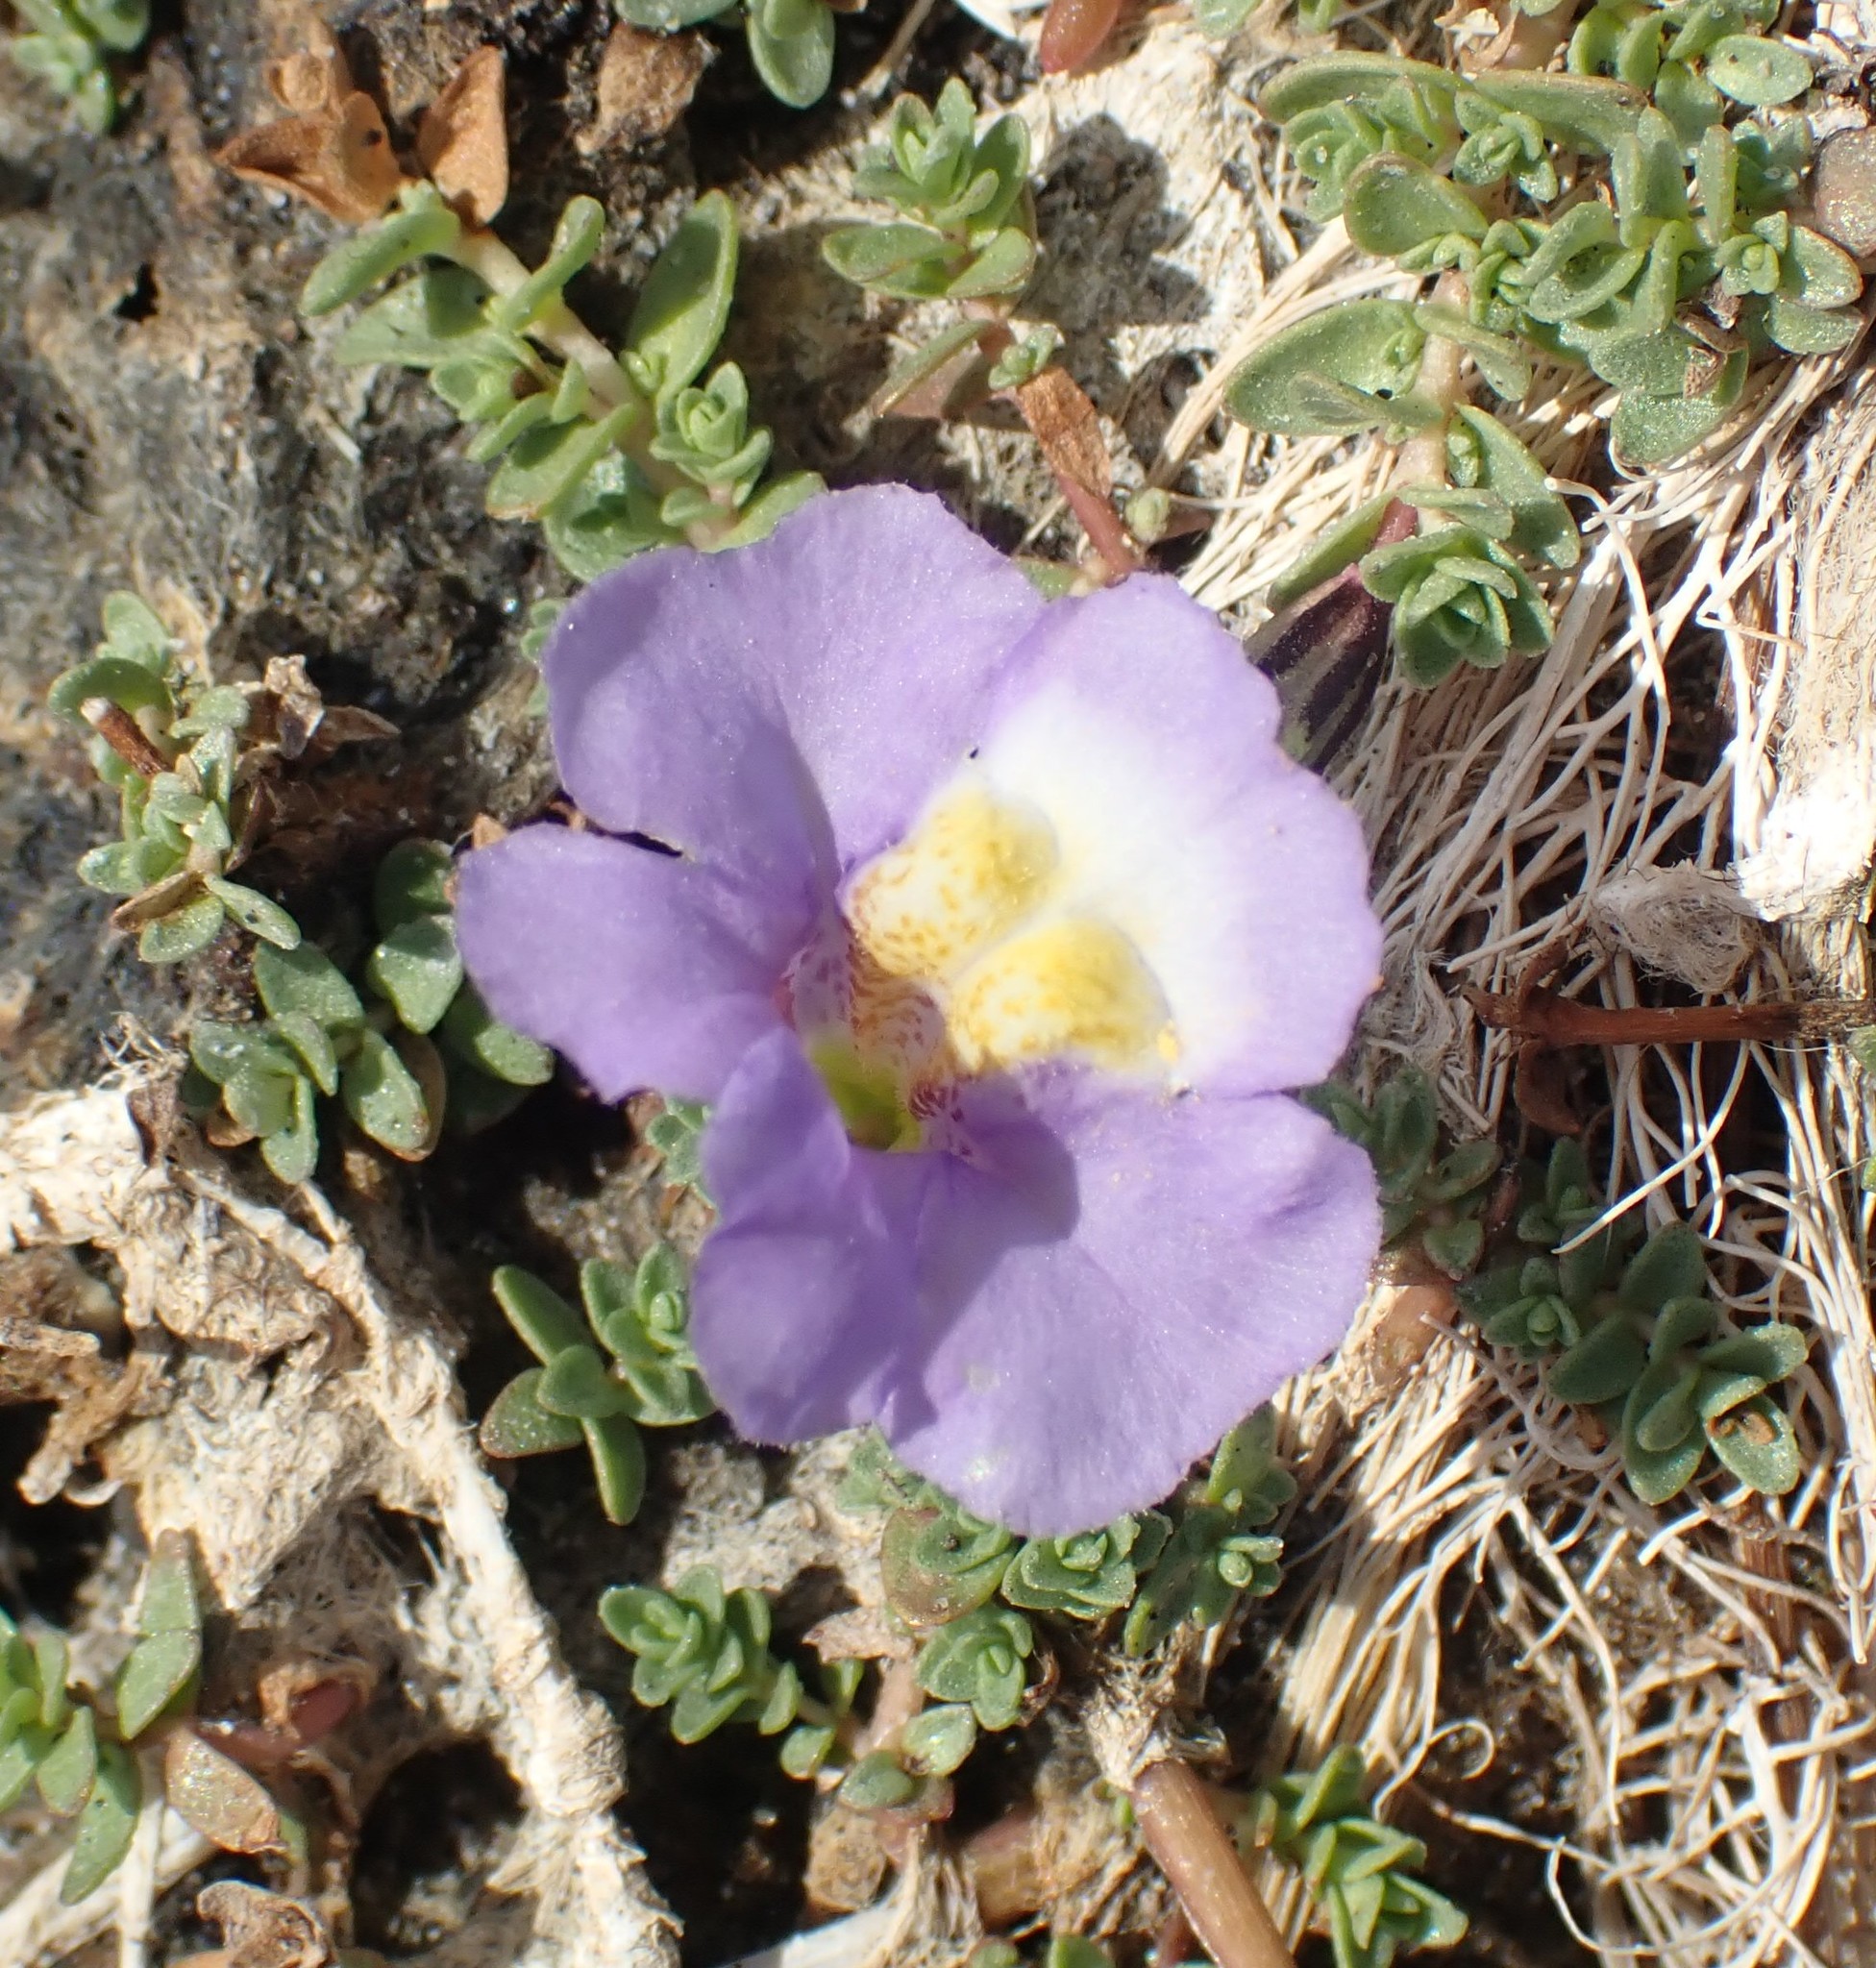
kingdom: Plantae
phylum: Tracheophyta
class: Magnoliopsida
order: Lamiales
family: Phrymaceae
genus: Thyridia
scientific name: Thyridia repens
